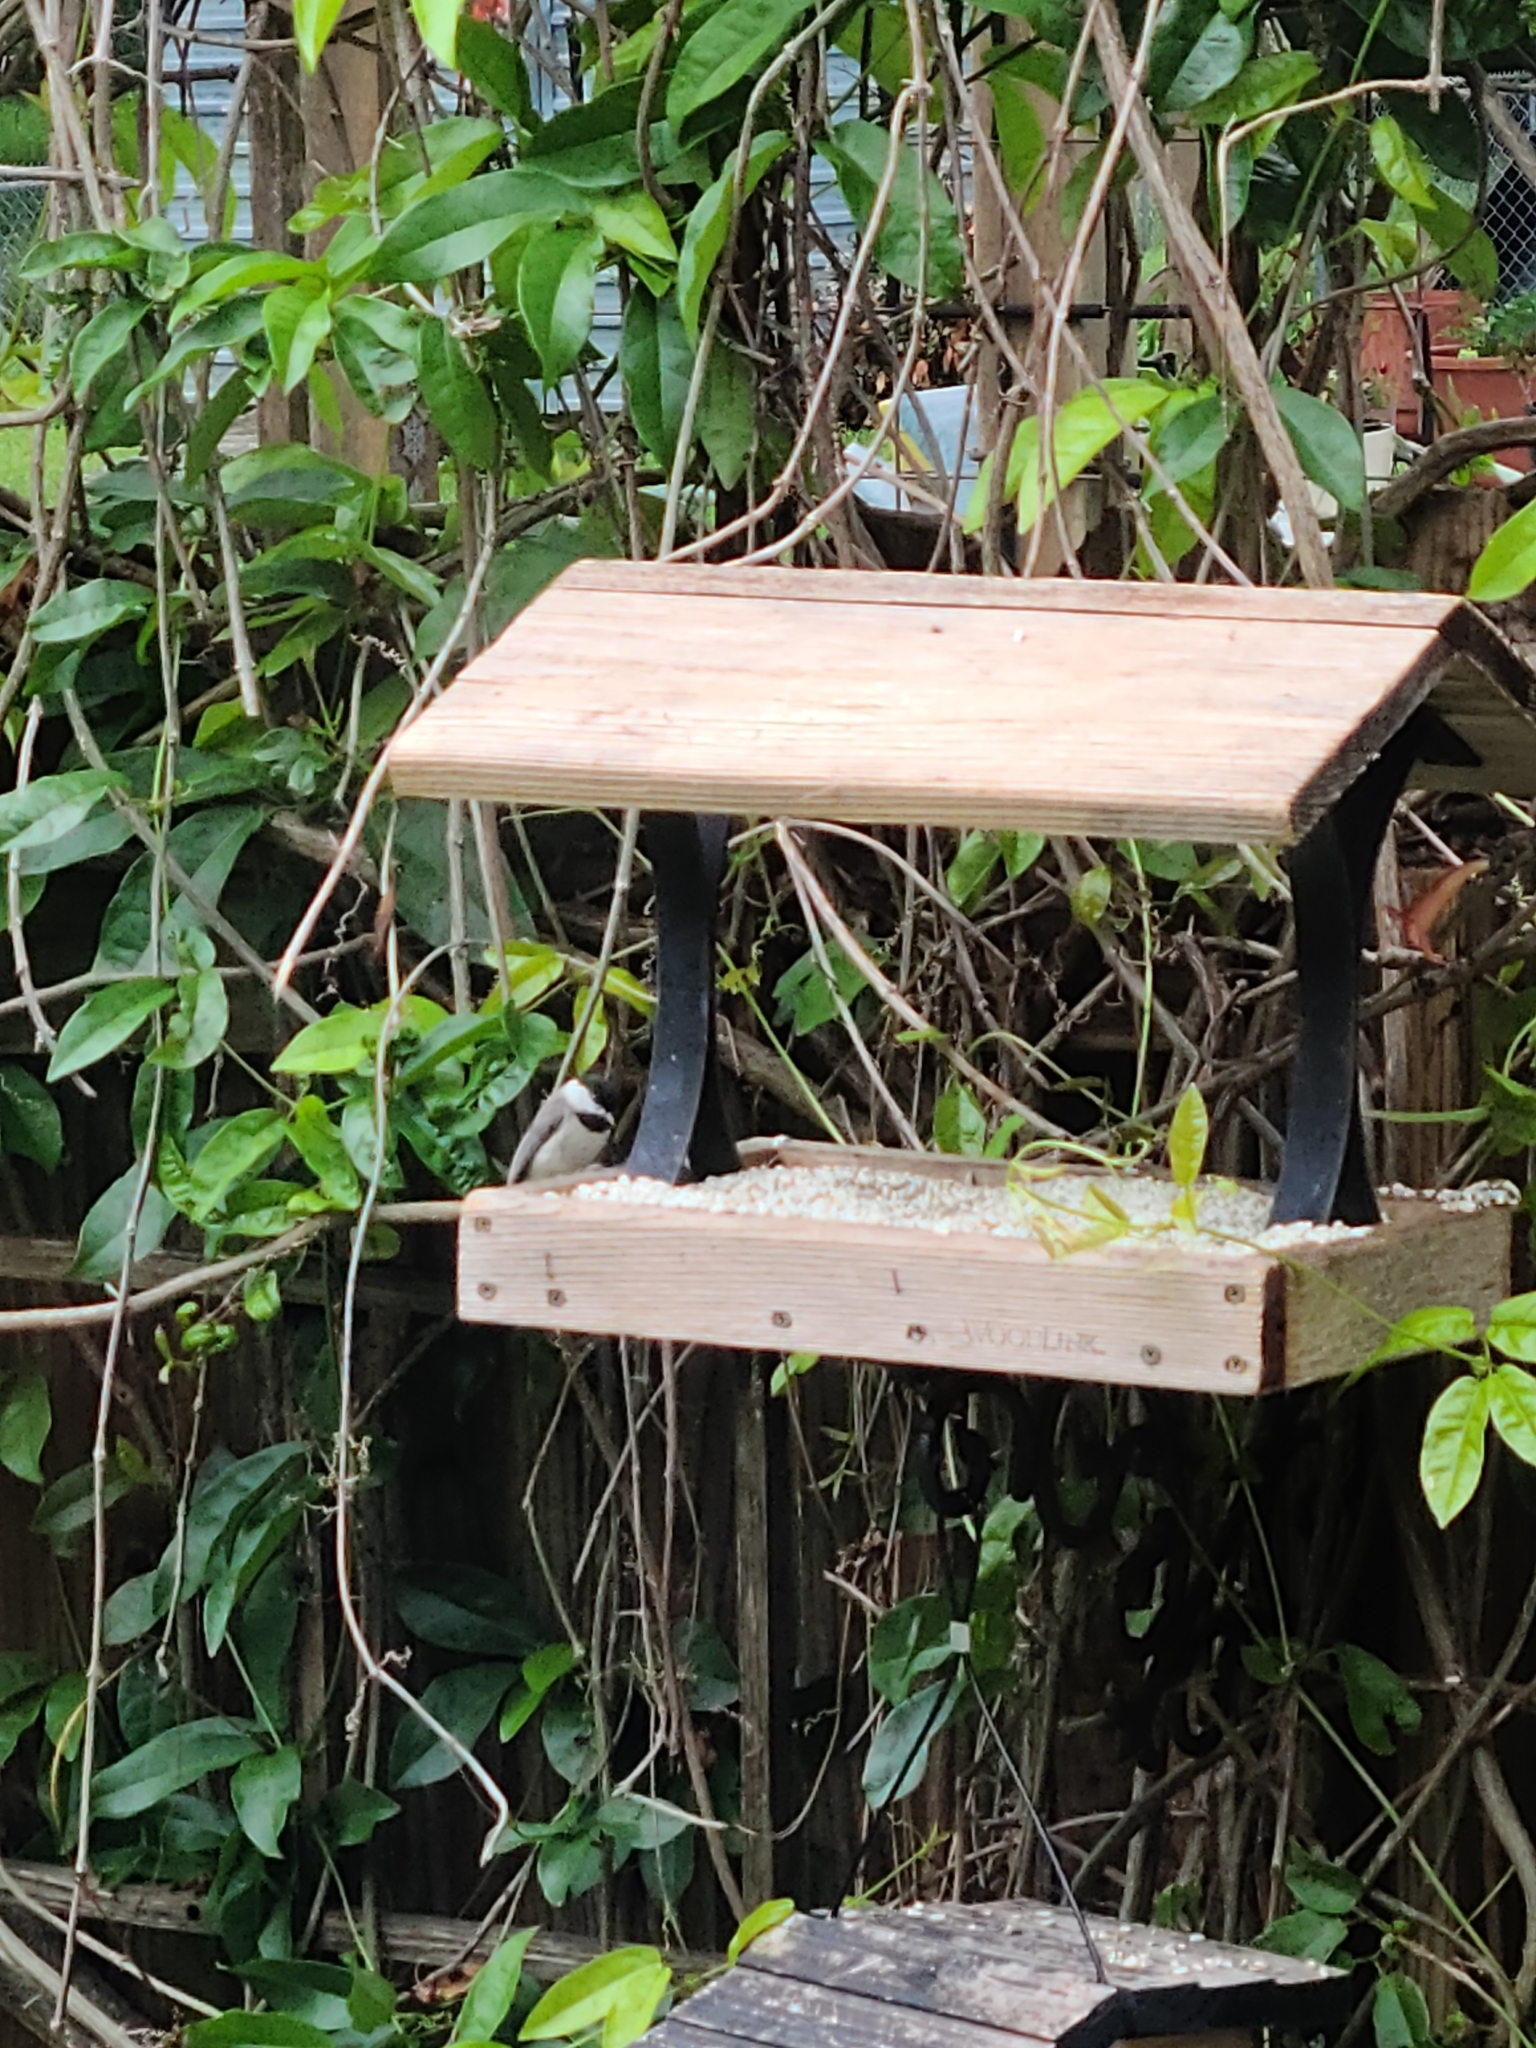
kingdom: Animalia
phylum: Chordata
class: Aves
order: Passeriformes
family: Paridae
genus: Poecile
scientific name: Poecile carolinensis
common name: Carolina chickadee
